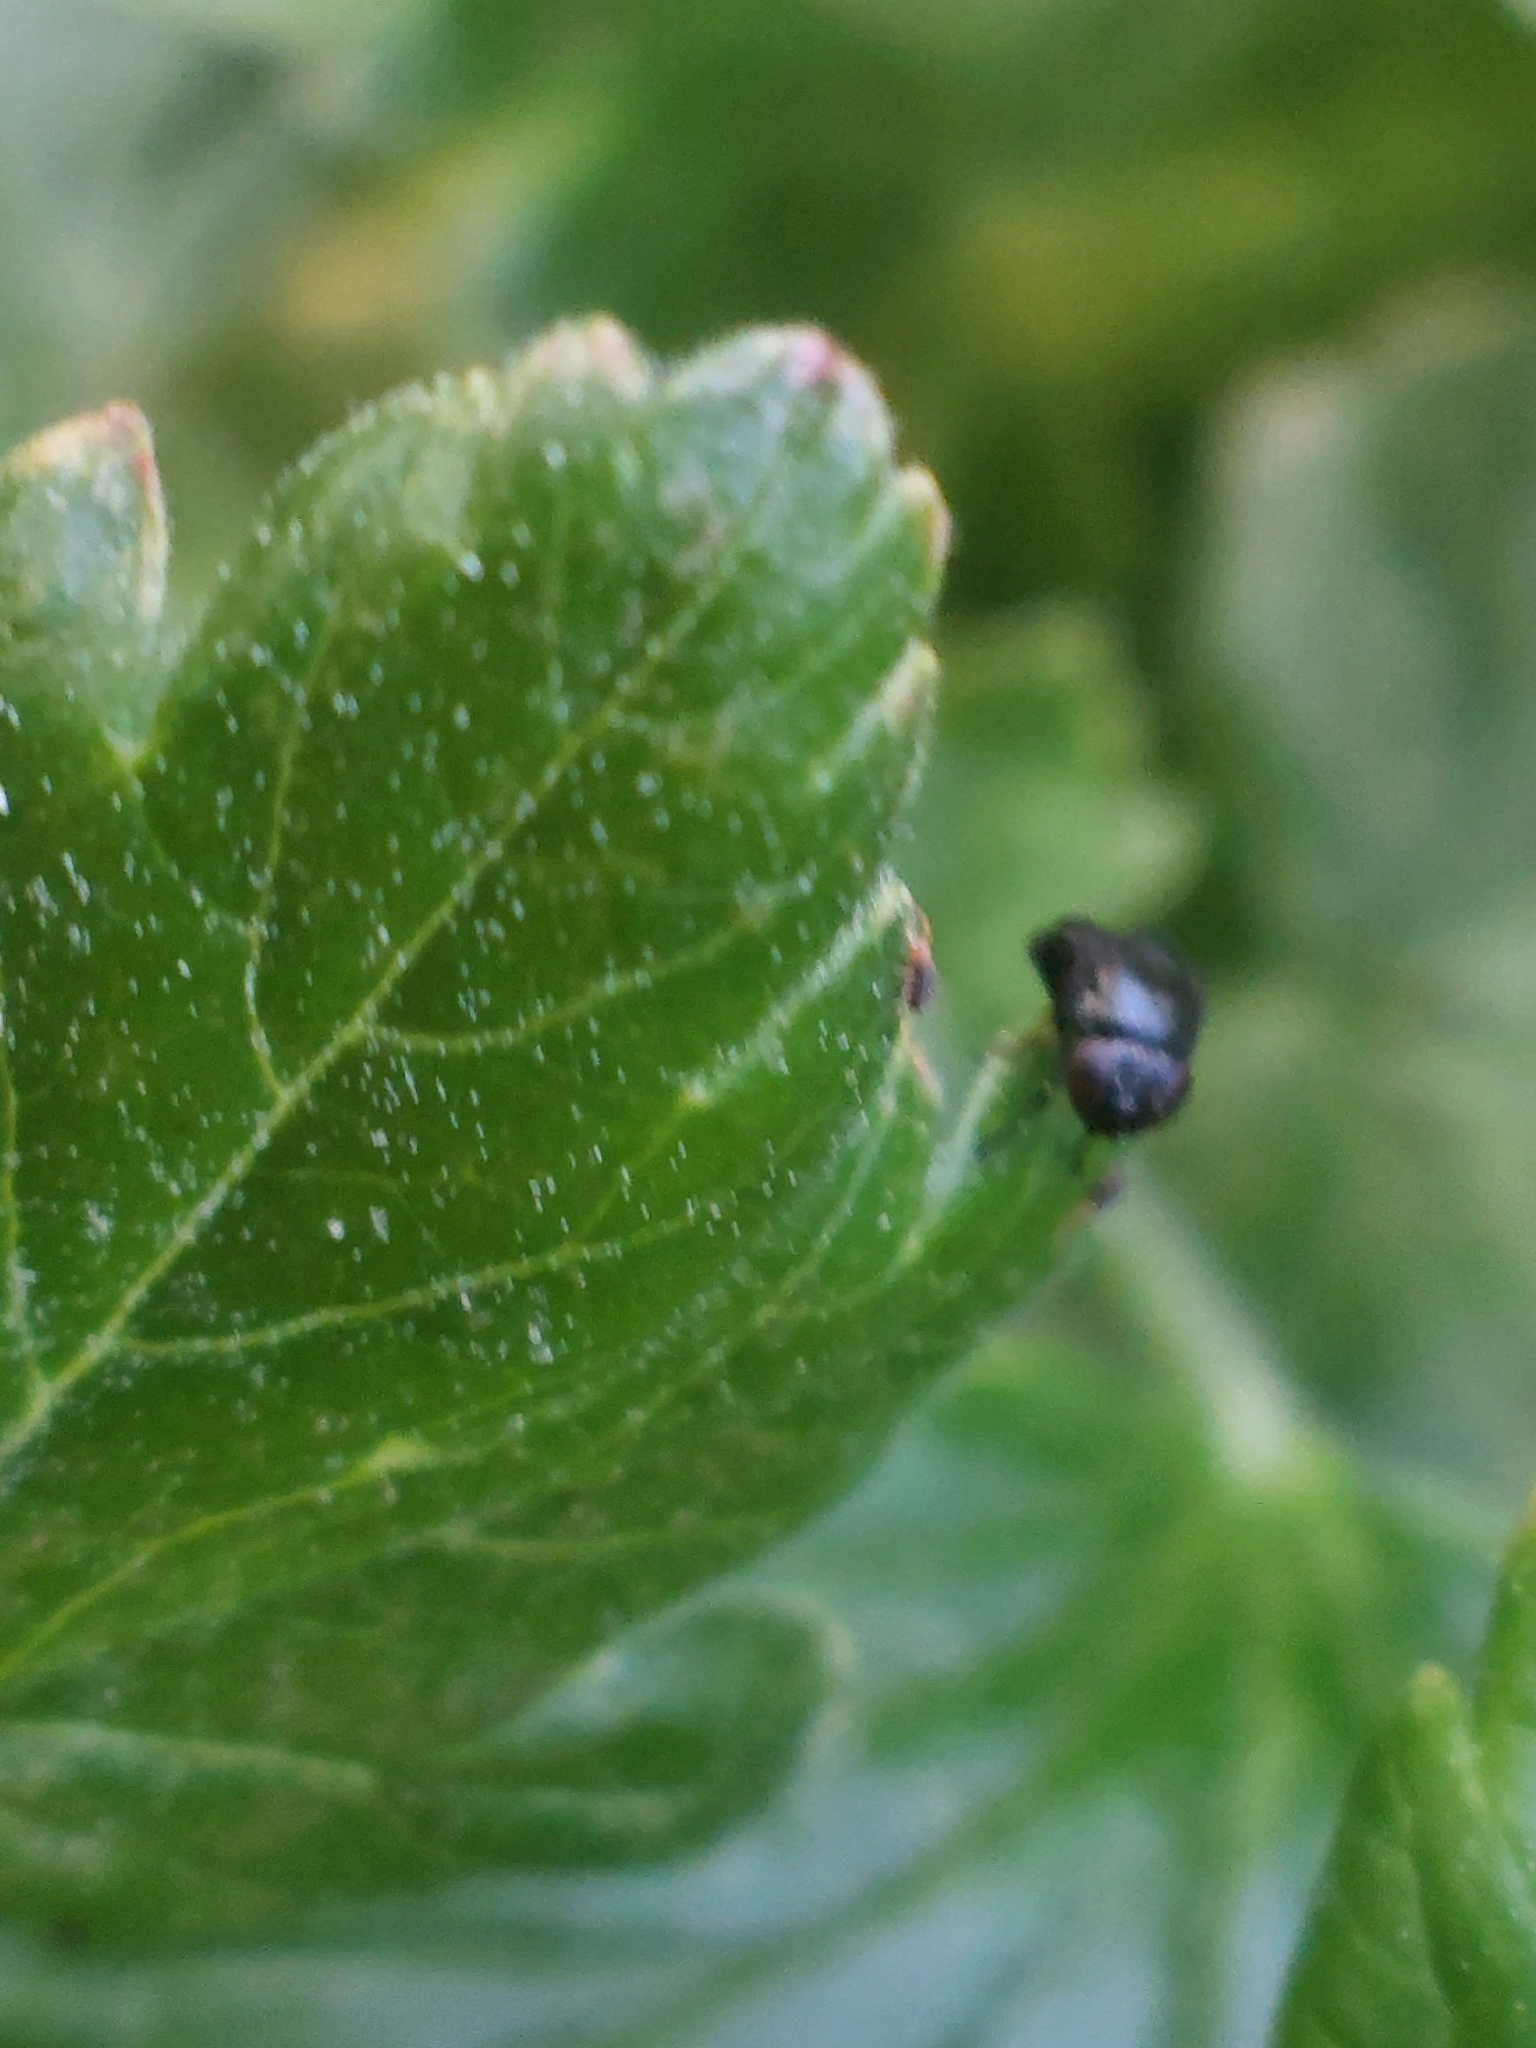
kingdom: Animalia
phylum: Arthropoda
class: Insecta
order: Diptera
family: Ephydridae
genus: Discomyza
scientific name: Discomyza incurva
